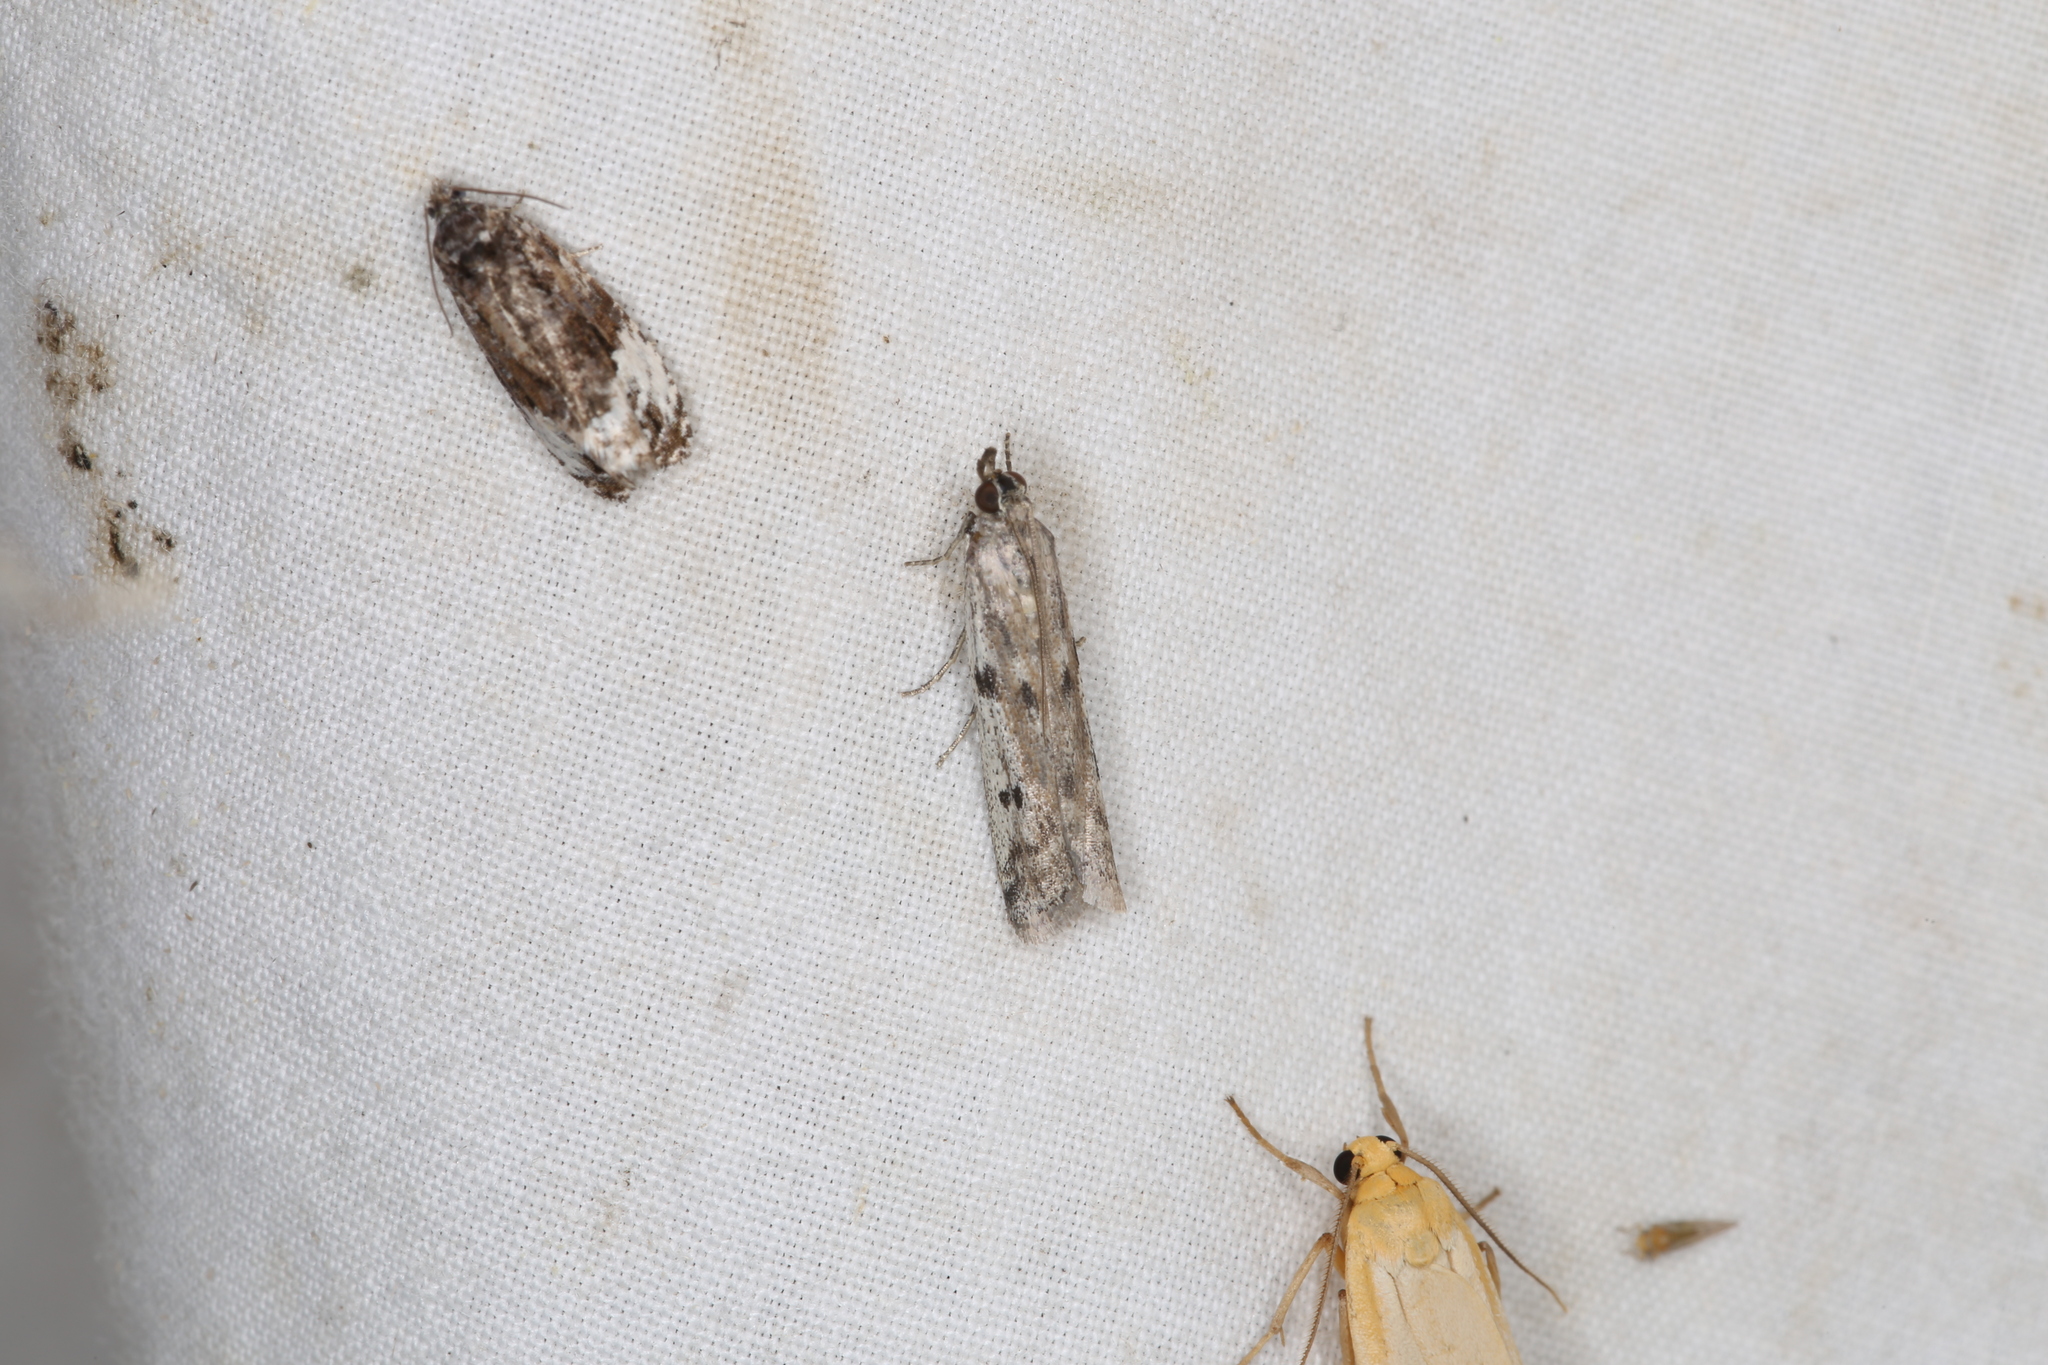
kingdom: Animalia
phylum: Arthropoda
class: Insecta
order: Lepidoptera
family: Pyralidae
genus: Phycitodes
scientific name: Phycitodes binaevella
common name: Ermine knot-horn
